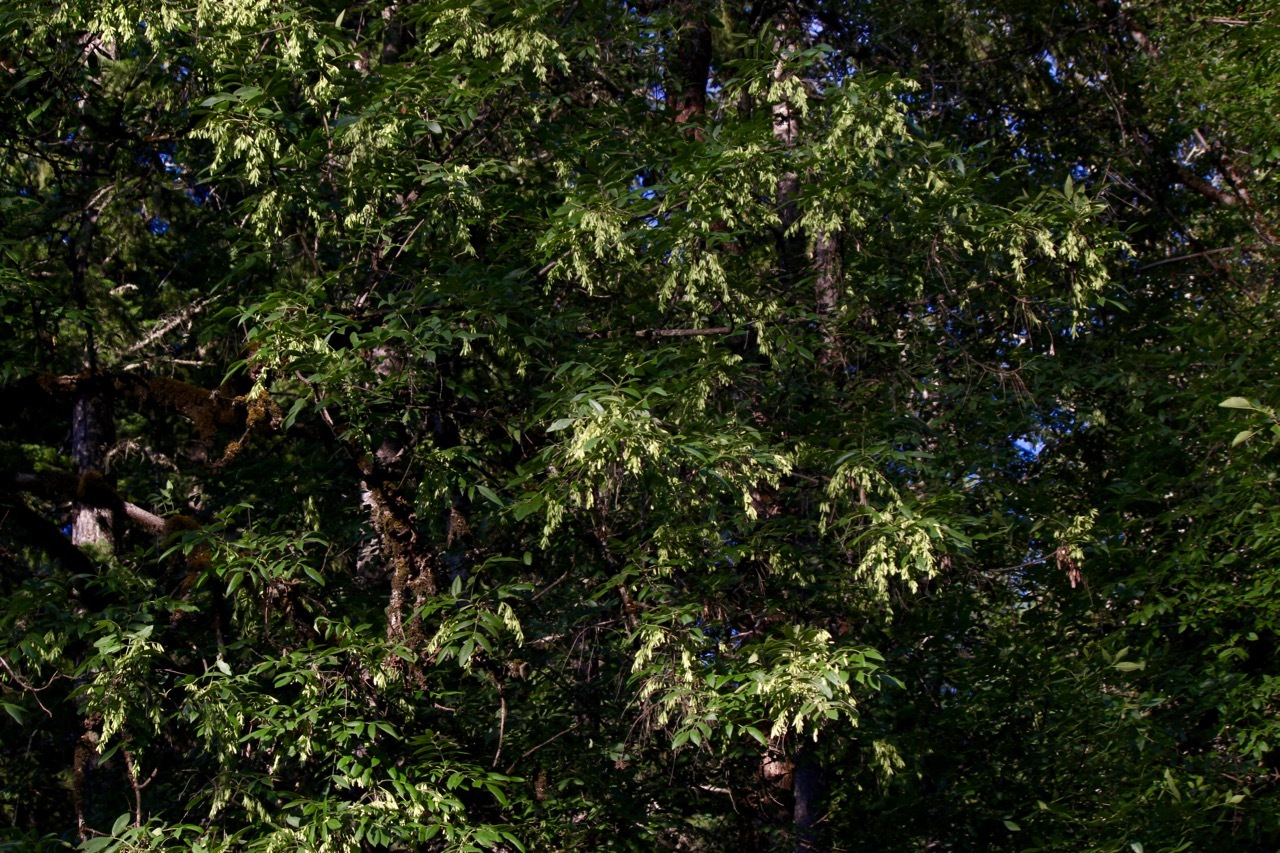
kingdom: Plantae
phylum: Tracheophyta
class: Magnoliopsida
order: Lamiales
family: Oleaceae
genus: Fraxinus
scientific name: Fraxinus latifolia
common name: Oregon ash
